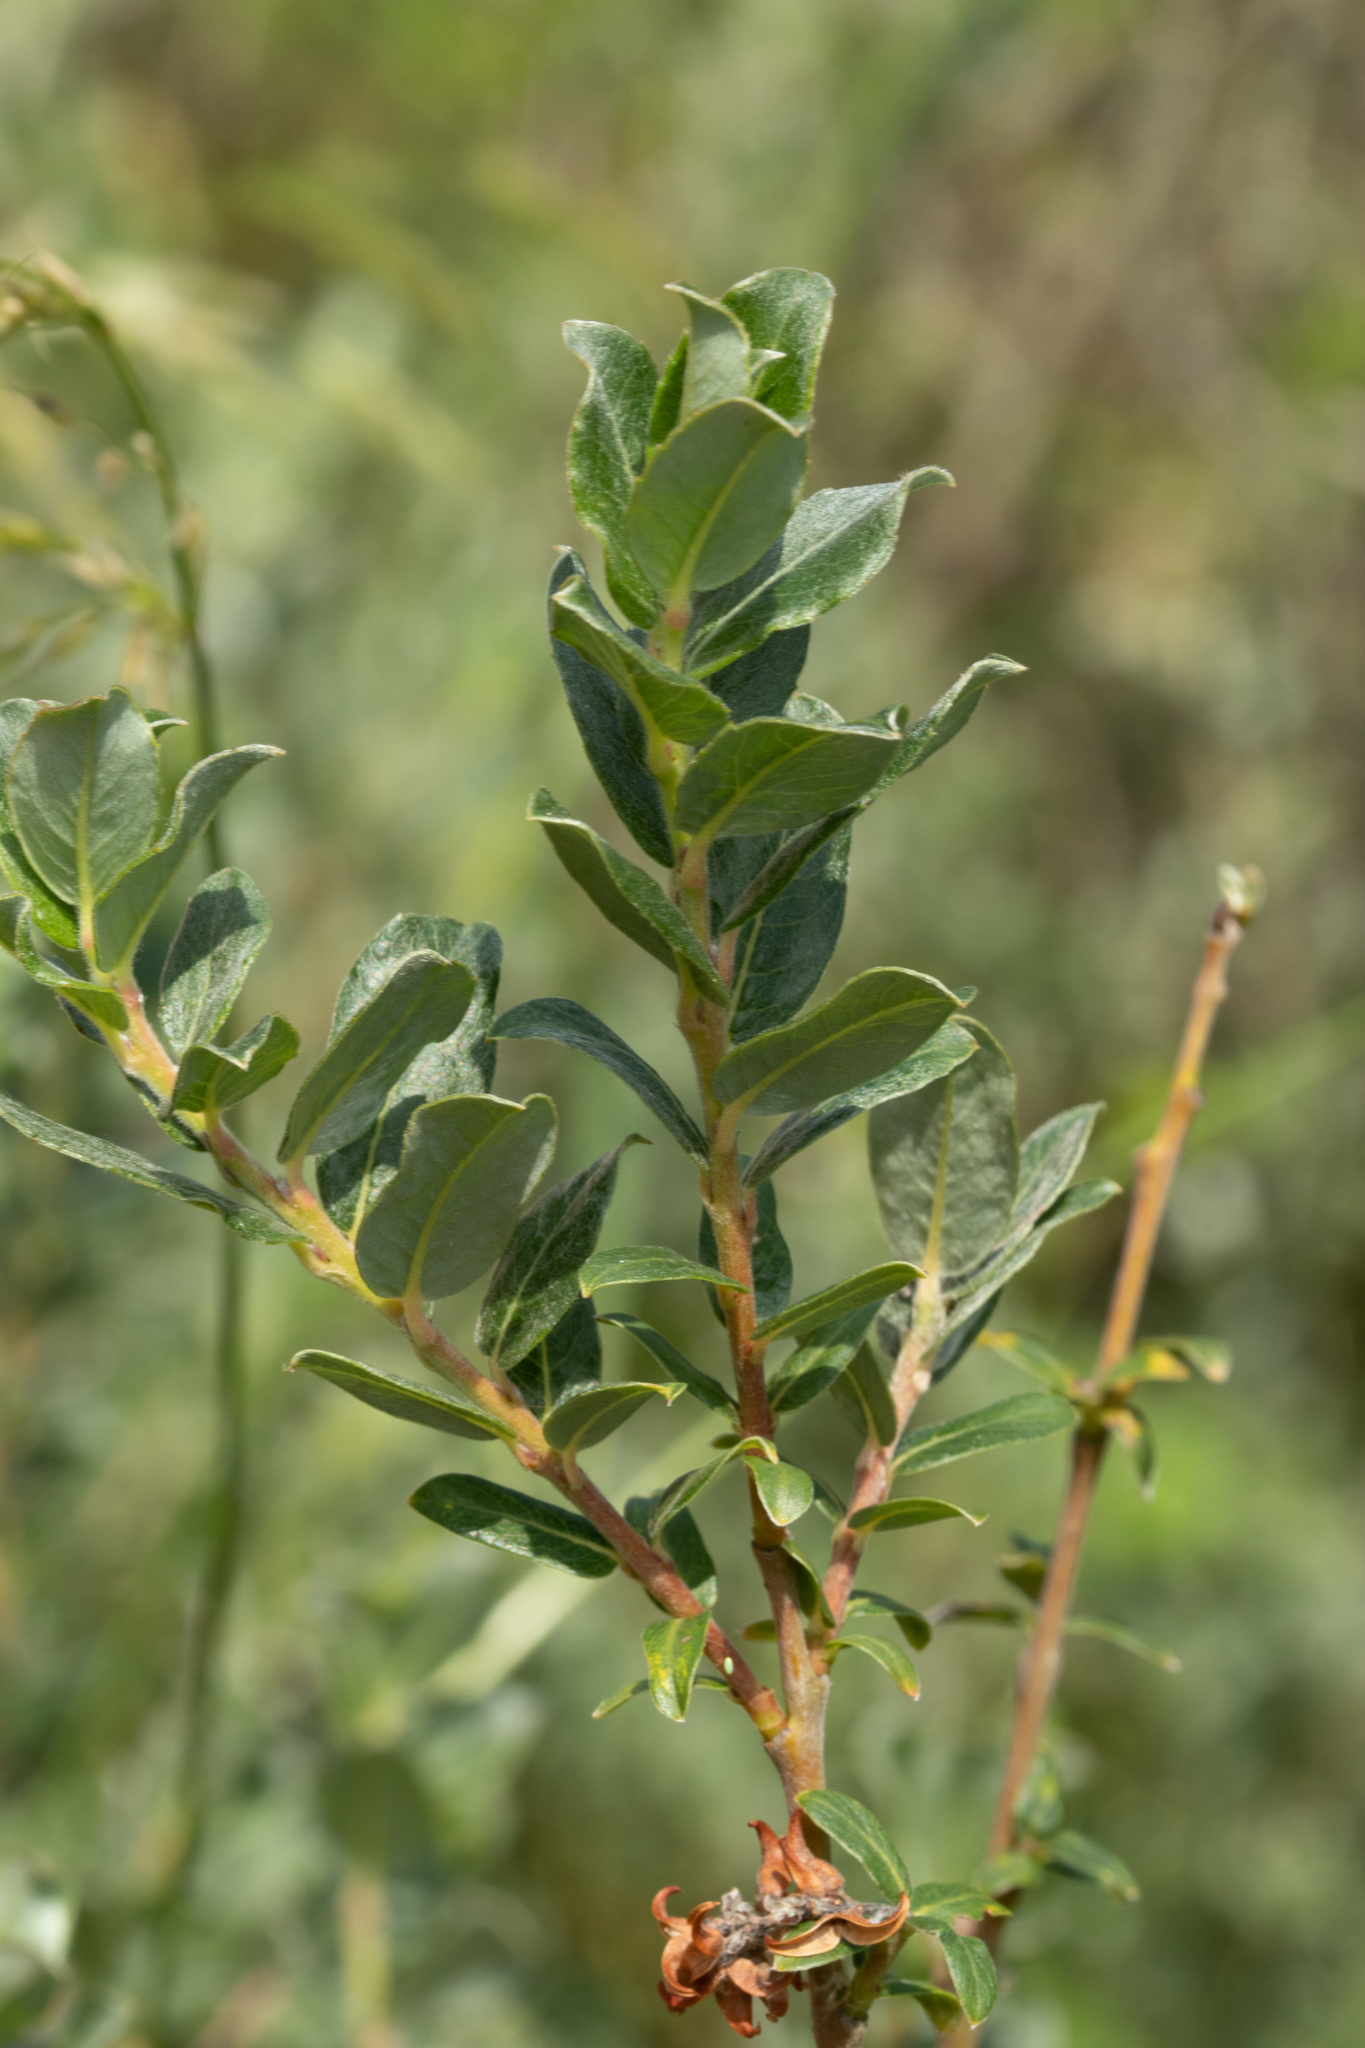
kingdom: Plantae
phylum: Tracheophyta
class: Magnoliopsida
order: Malpighiales
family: Salicaceae
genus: Salix
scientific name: Salix repens
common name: Creeping willow
